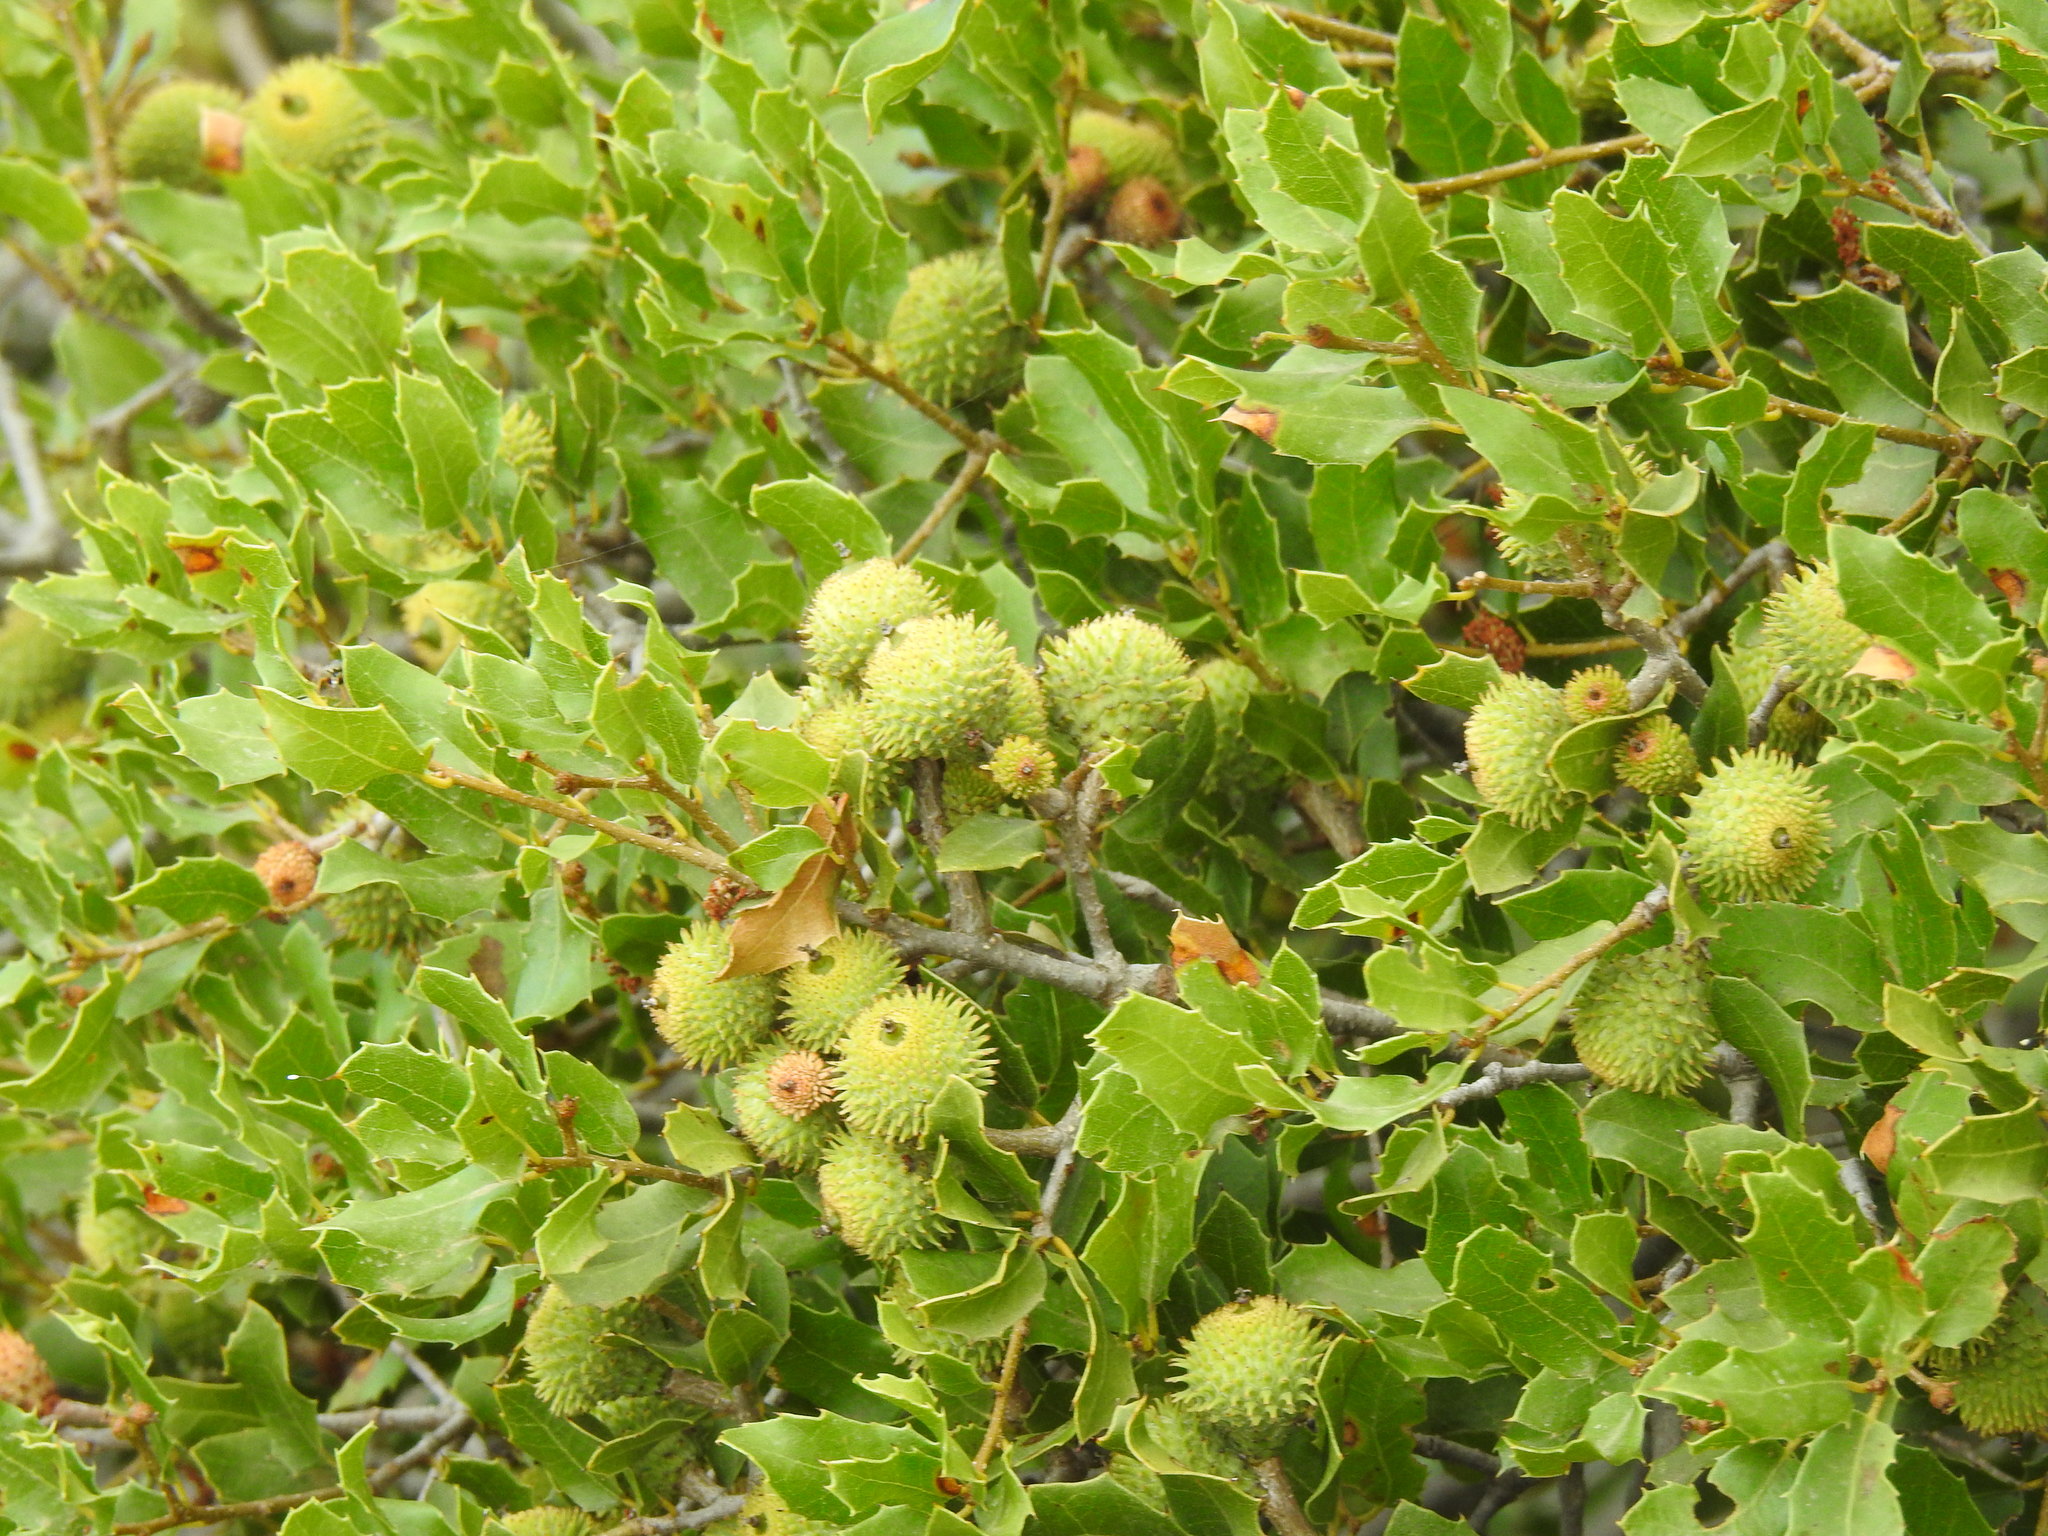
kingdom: Plantae
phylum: Tracheophyta
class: Magnoliopsida
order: Fagales
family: Fagaceae
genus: Quercus
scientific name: Quercus coccifera
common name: Kermes oak
